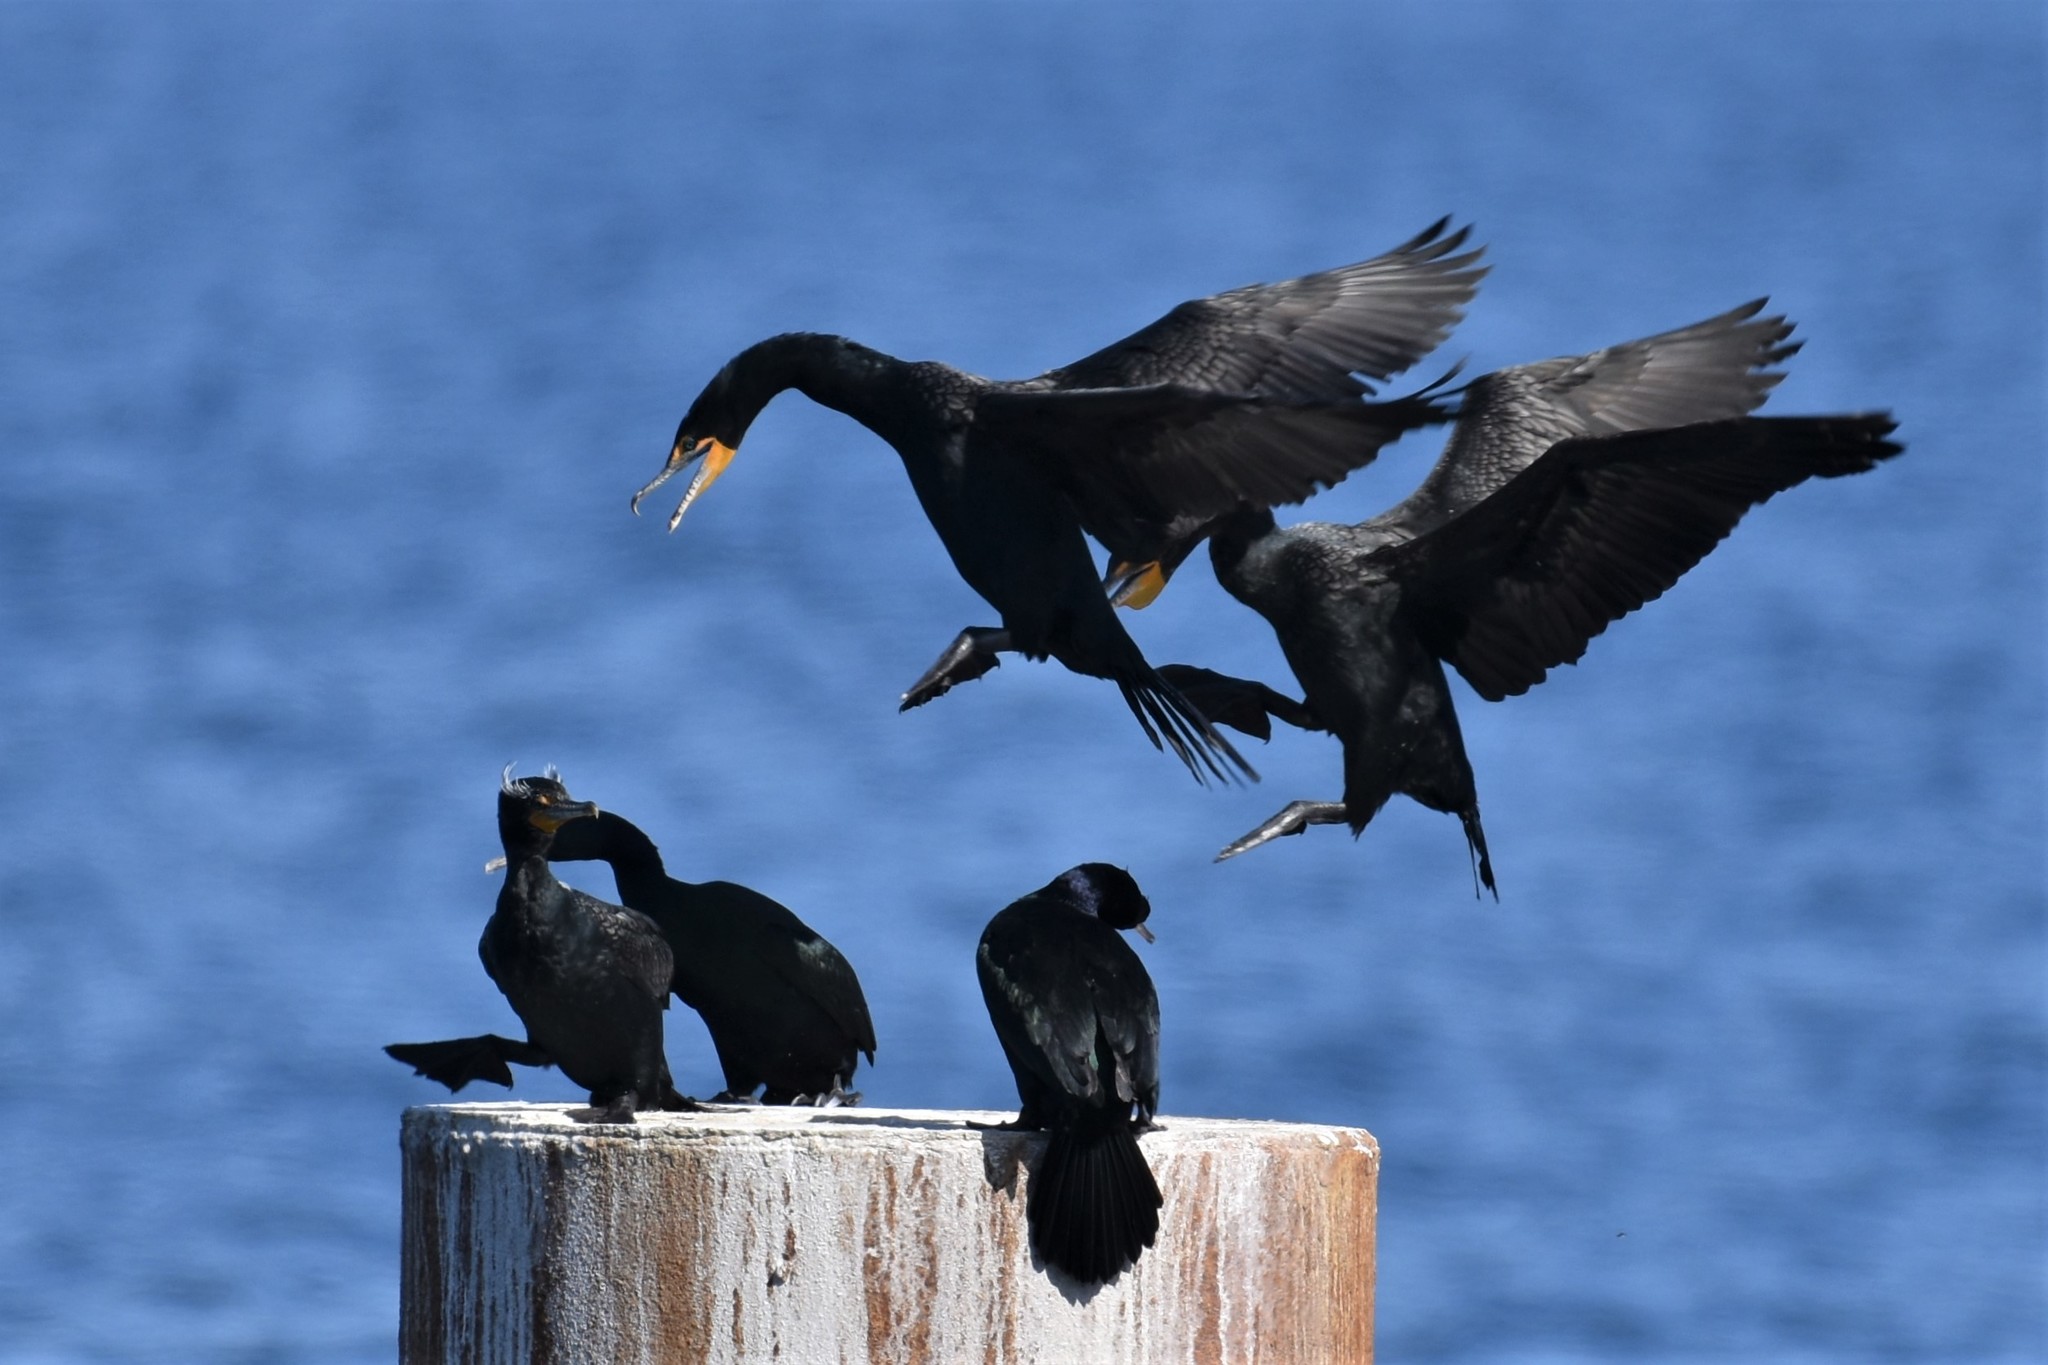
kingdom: Animalia
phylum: Chordata
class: Aves
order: Suliformes
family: Phalacrocoracidae
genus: Phalacrocorax
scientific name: Phalacrocorax auritus
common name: Double-crested cormorant
